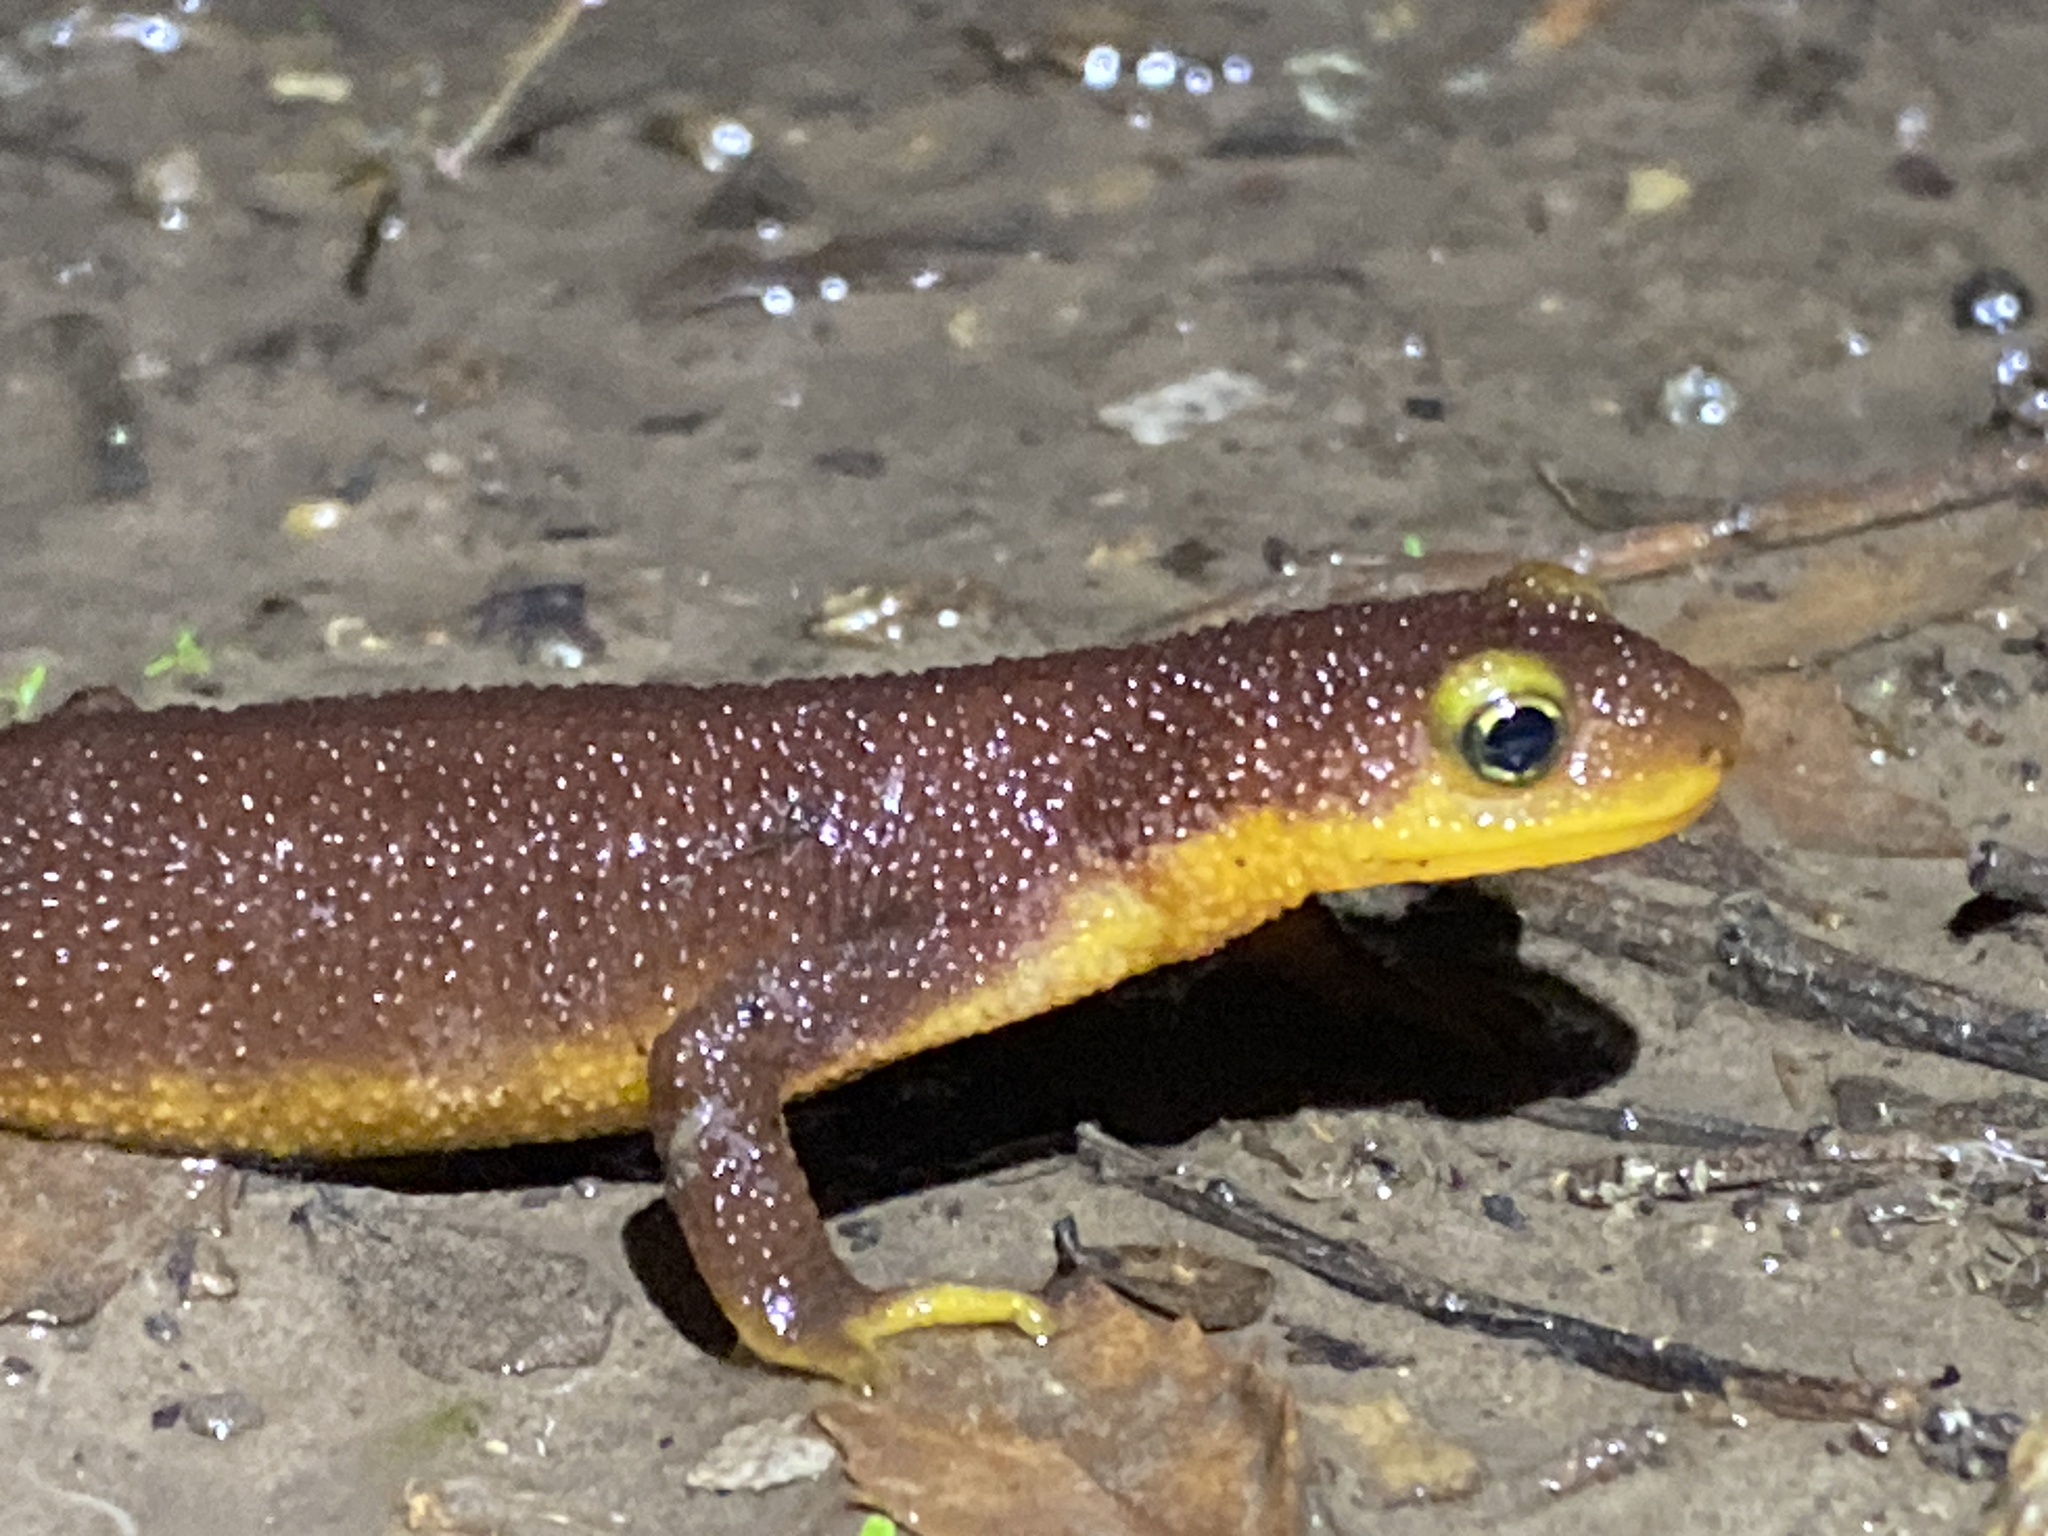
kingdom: Animalia
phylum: Chordata
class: Amphibia
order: Caudata
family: Salamandridae
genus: Taricha
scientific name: Taricha torosa
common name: California newt
